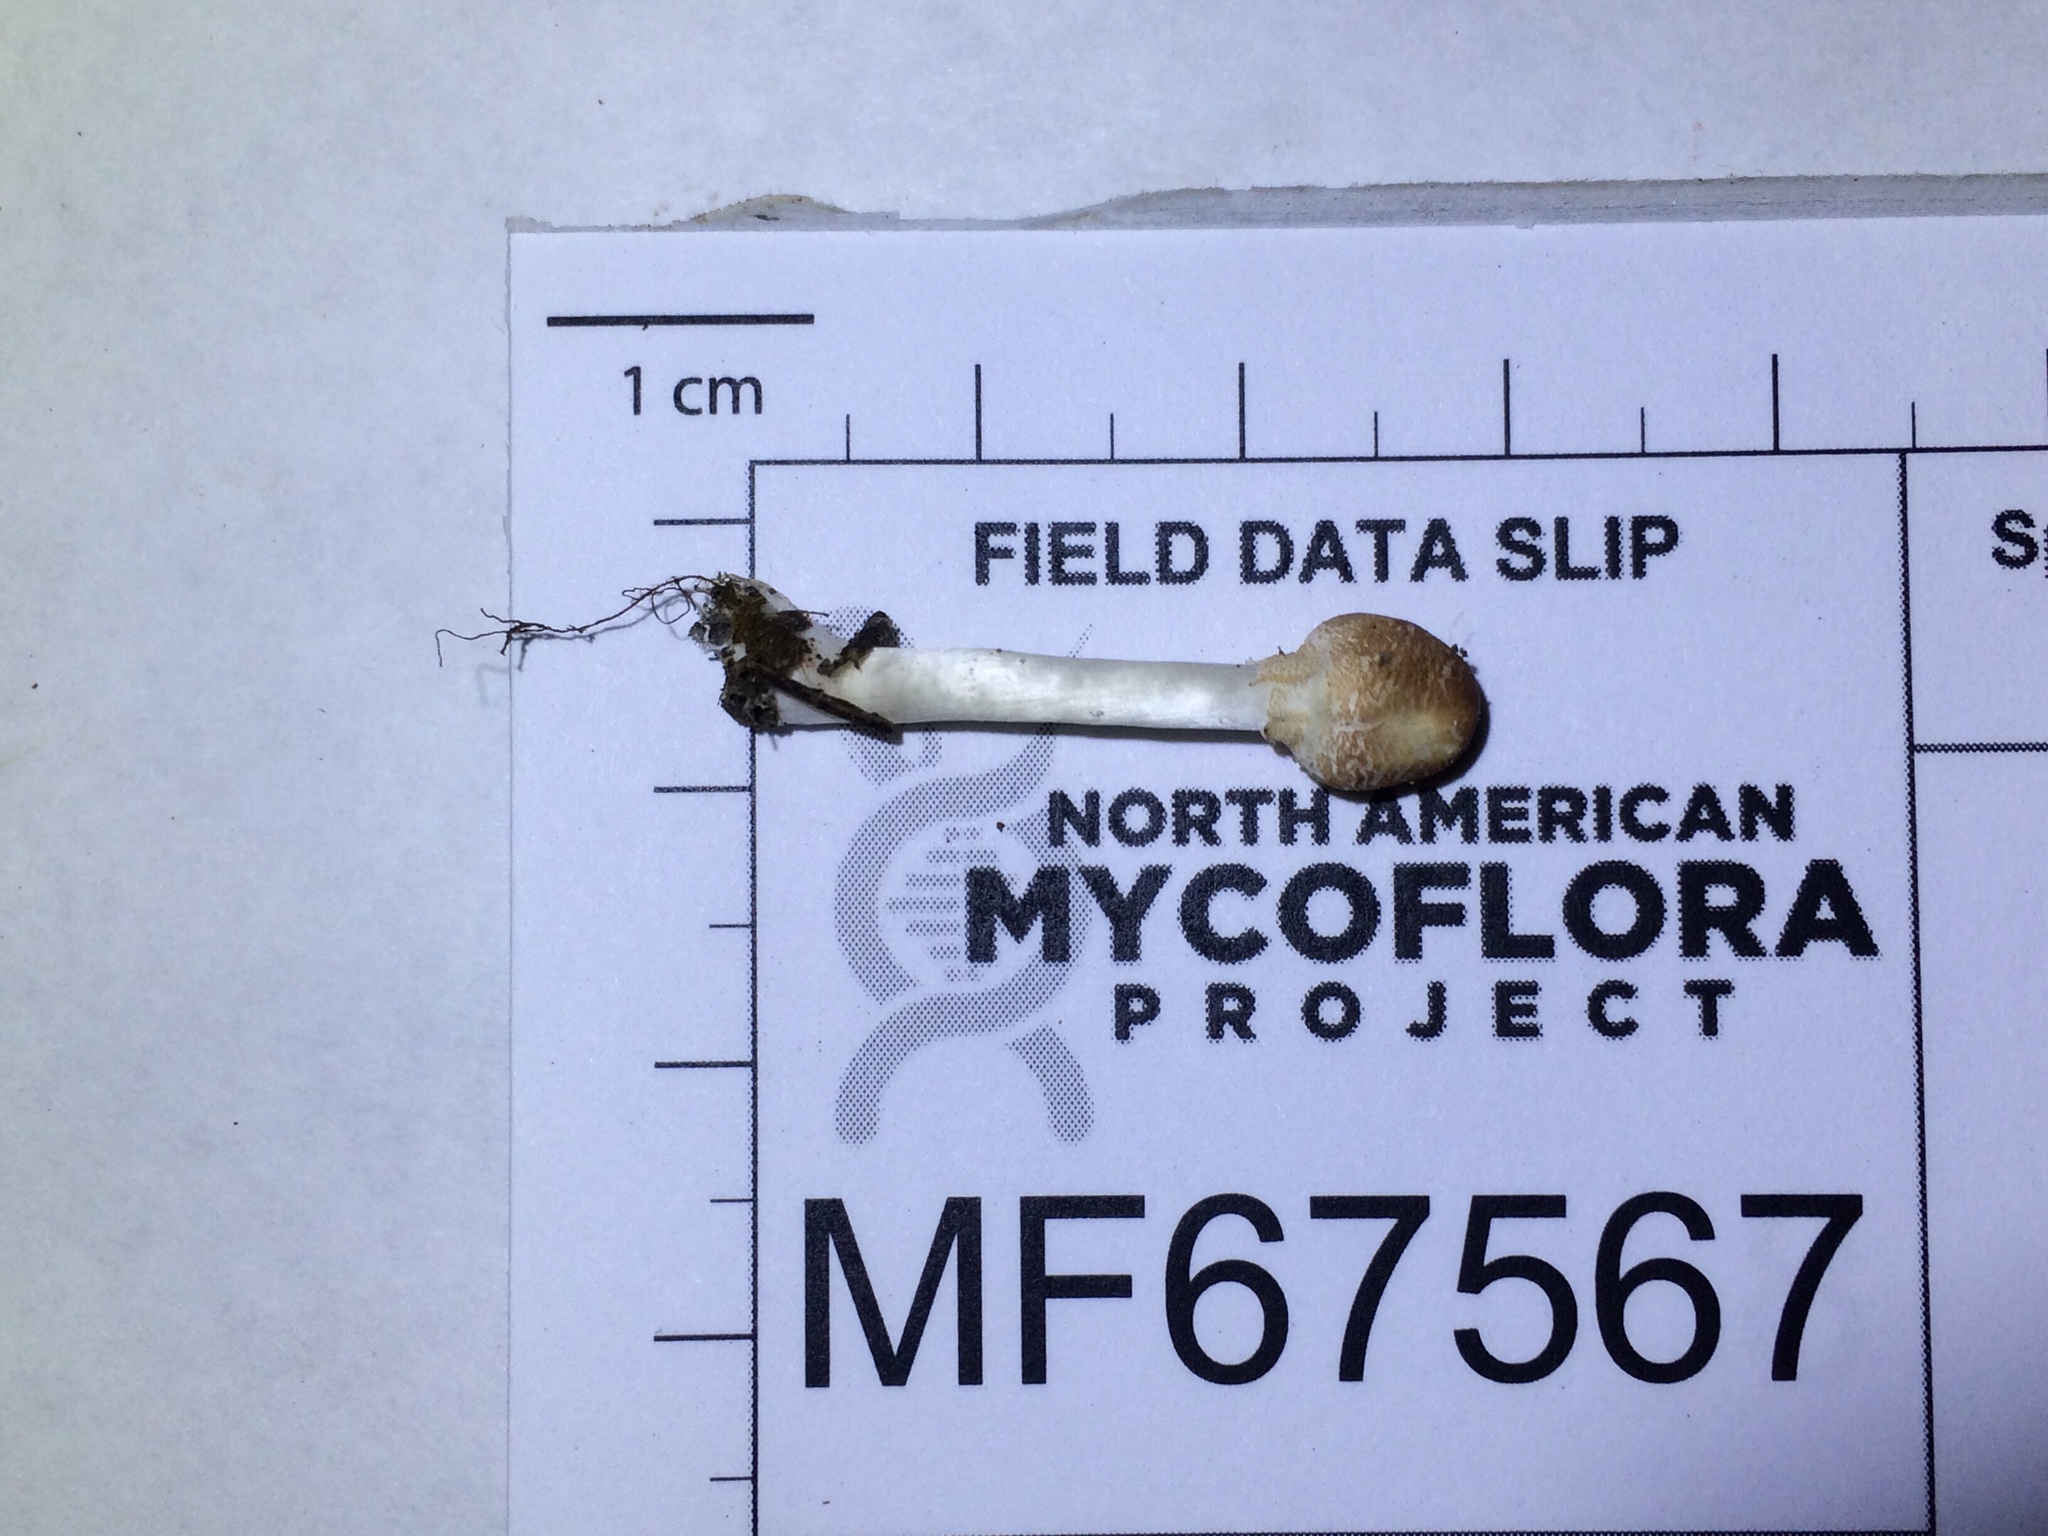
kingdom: Fungi
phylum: Basidiomycota
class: Agaricomycetes
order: Agaricales
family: Agaricaceae
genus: Leucoagaricus
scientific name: Leucoagaricus rubrotinctus
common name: Ruby dapperling
